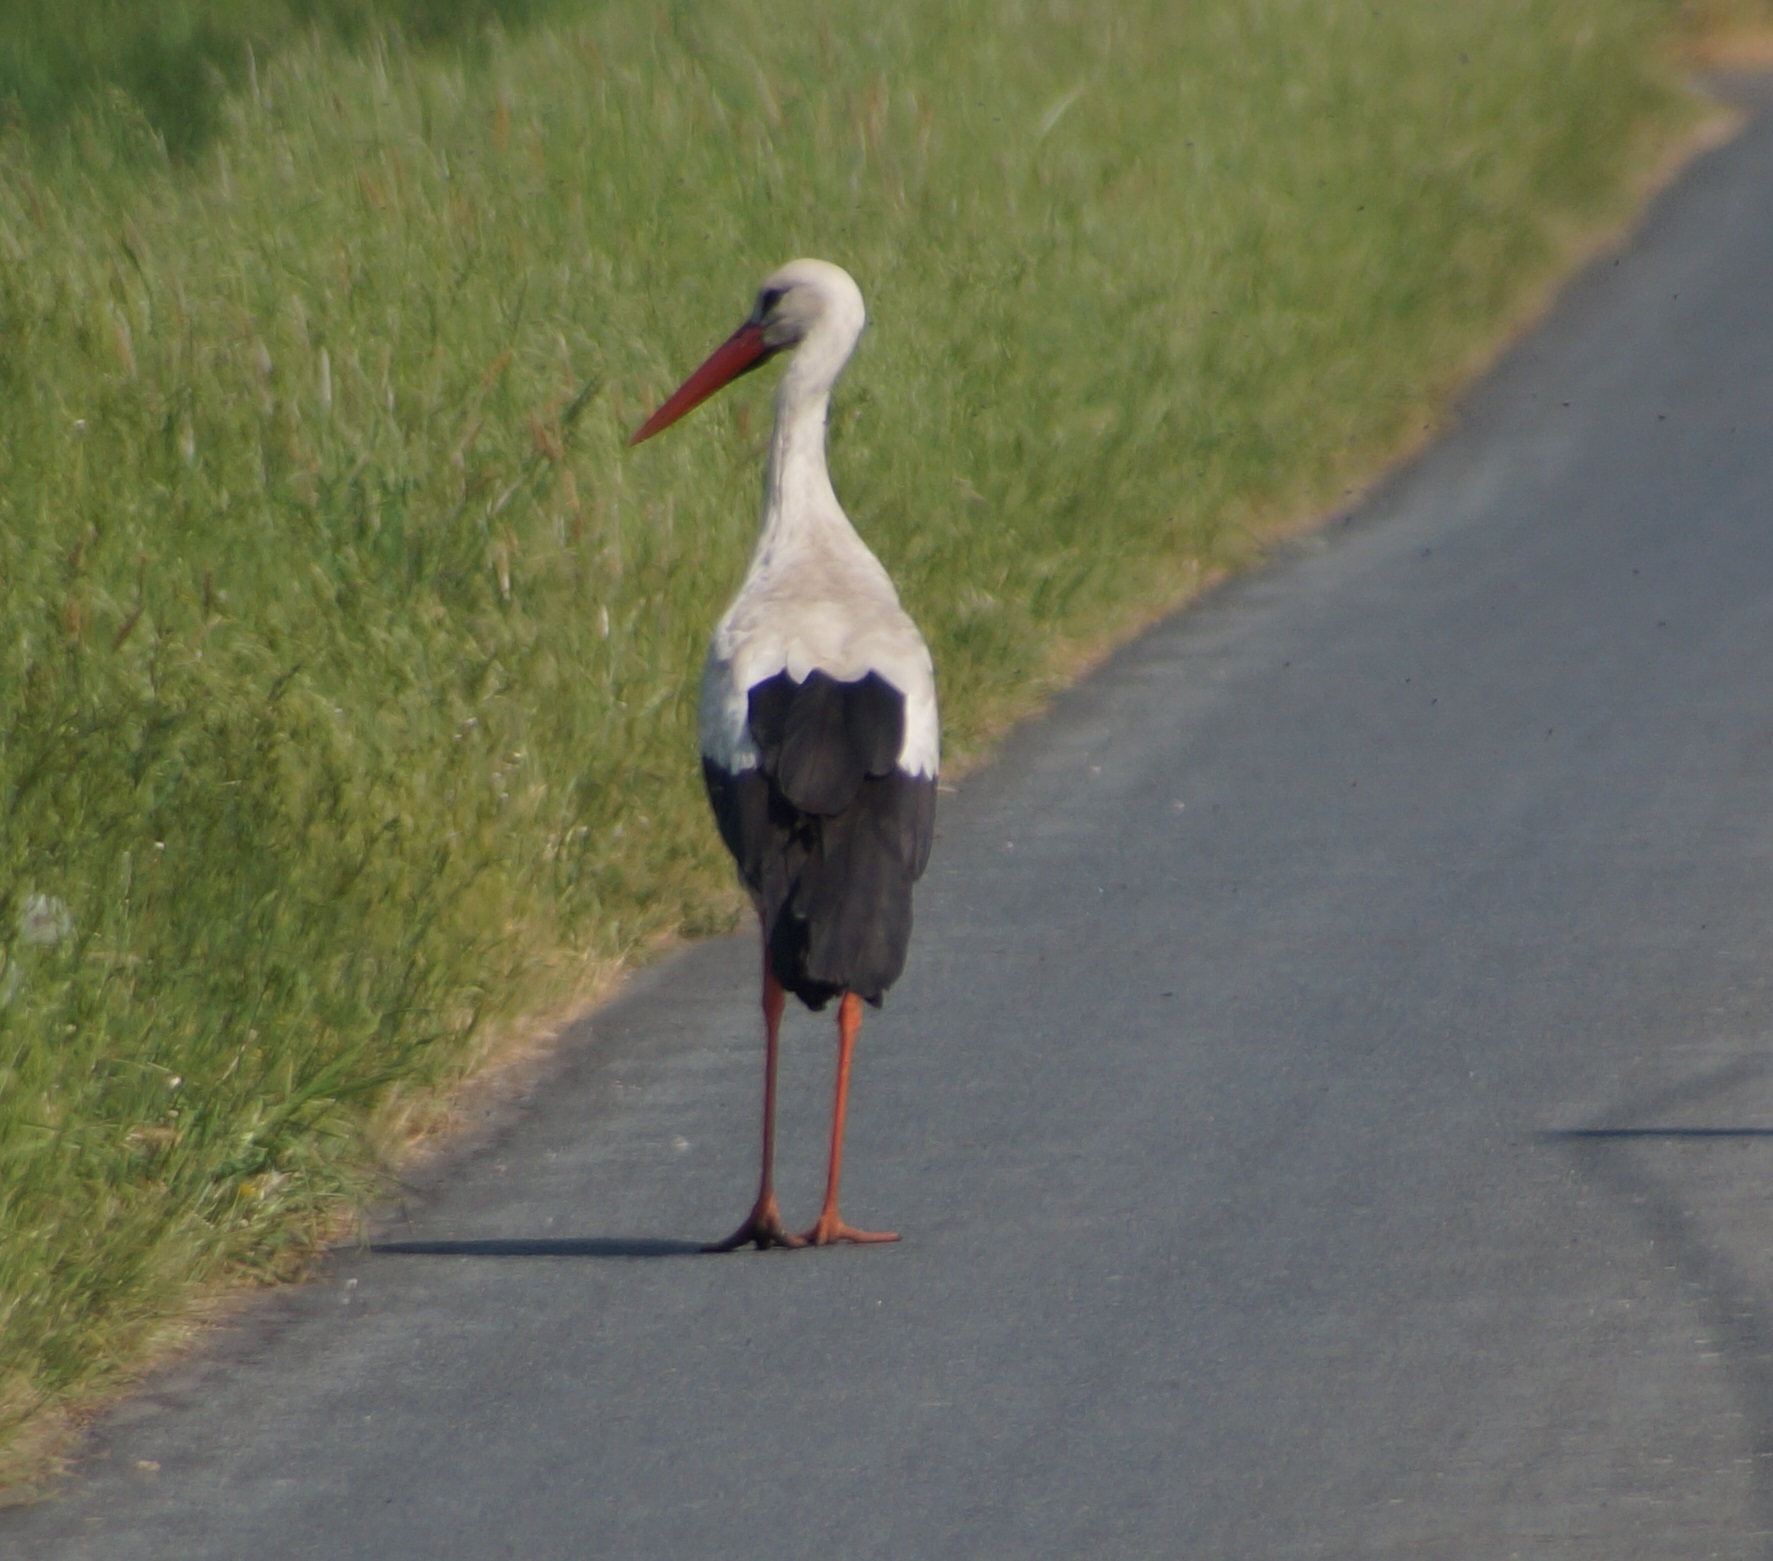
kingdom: Animalia
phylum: Chordata
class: Aves
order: Ciconiiformes
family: Ciconiidae
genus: Ciconia
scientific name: Ciconia ciconia
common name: White stork
